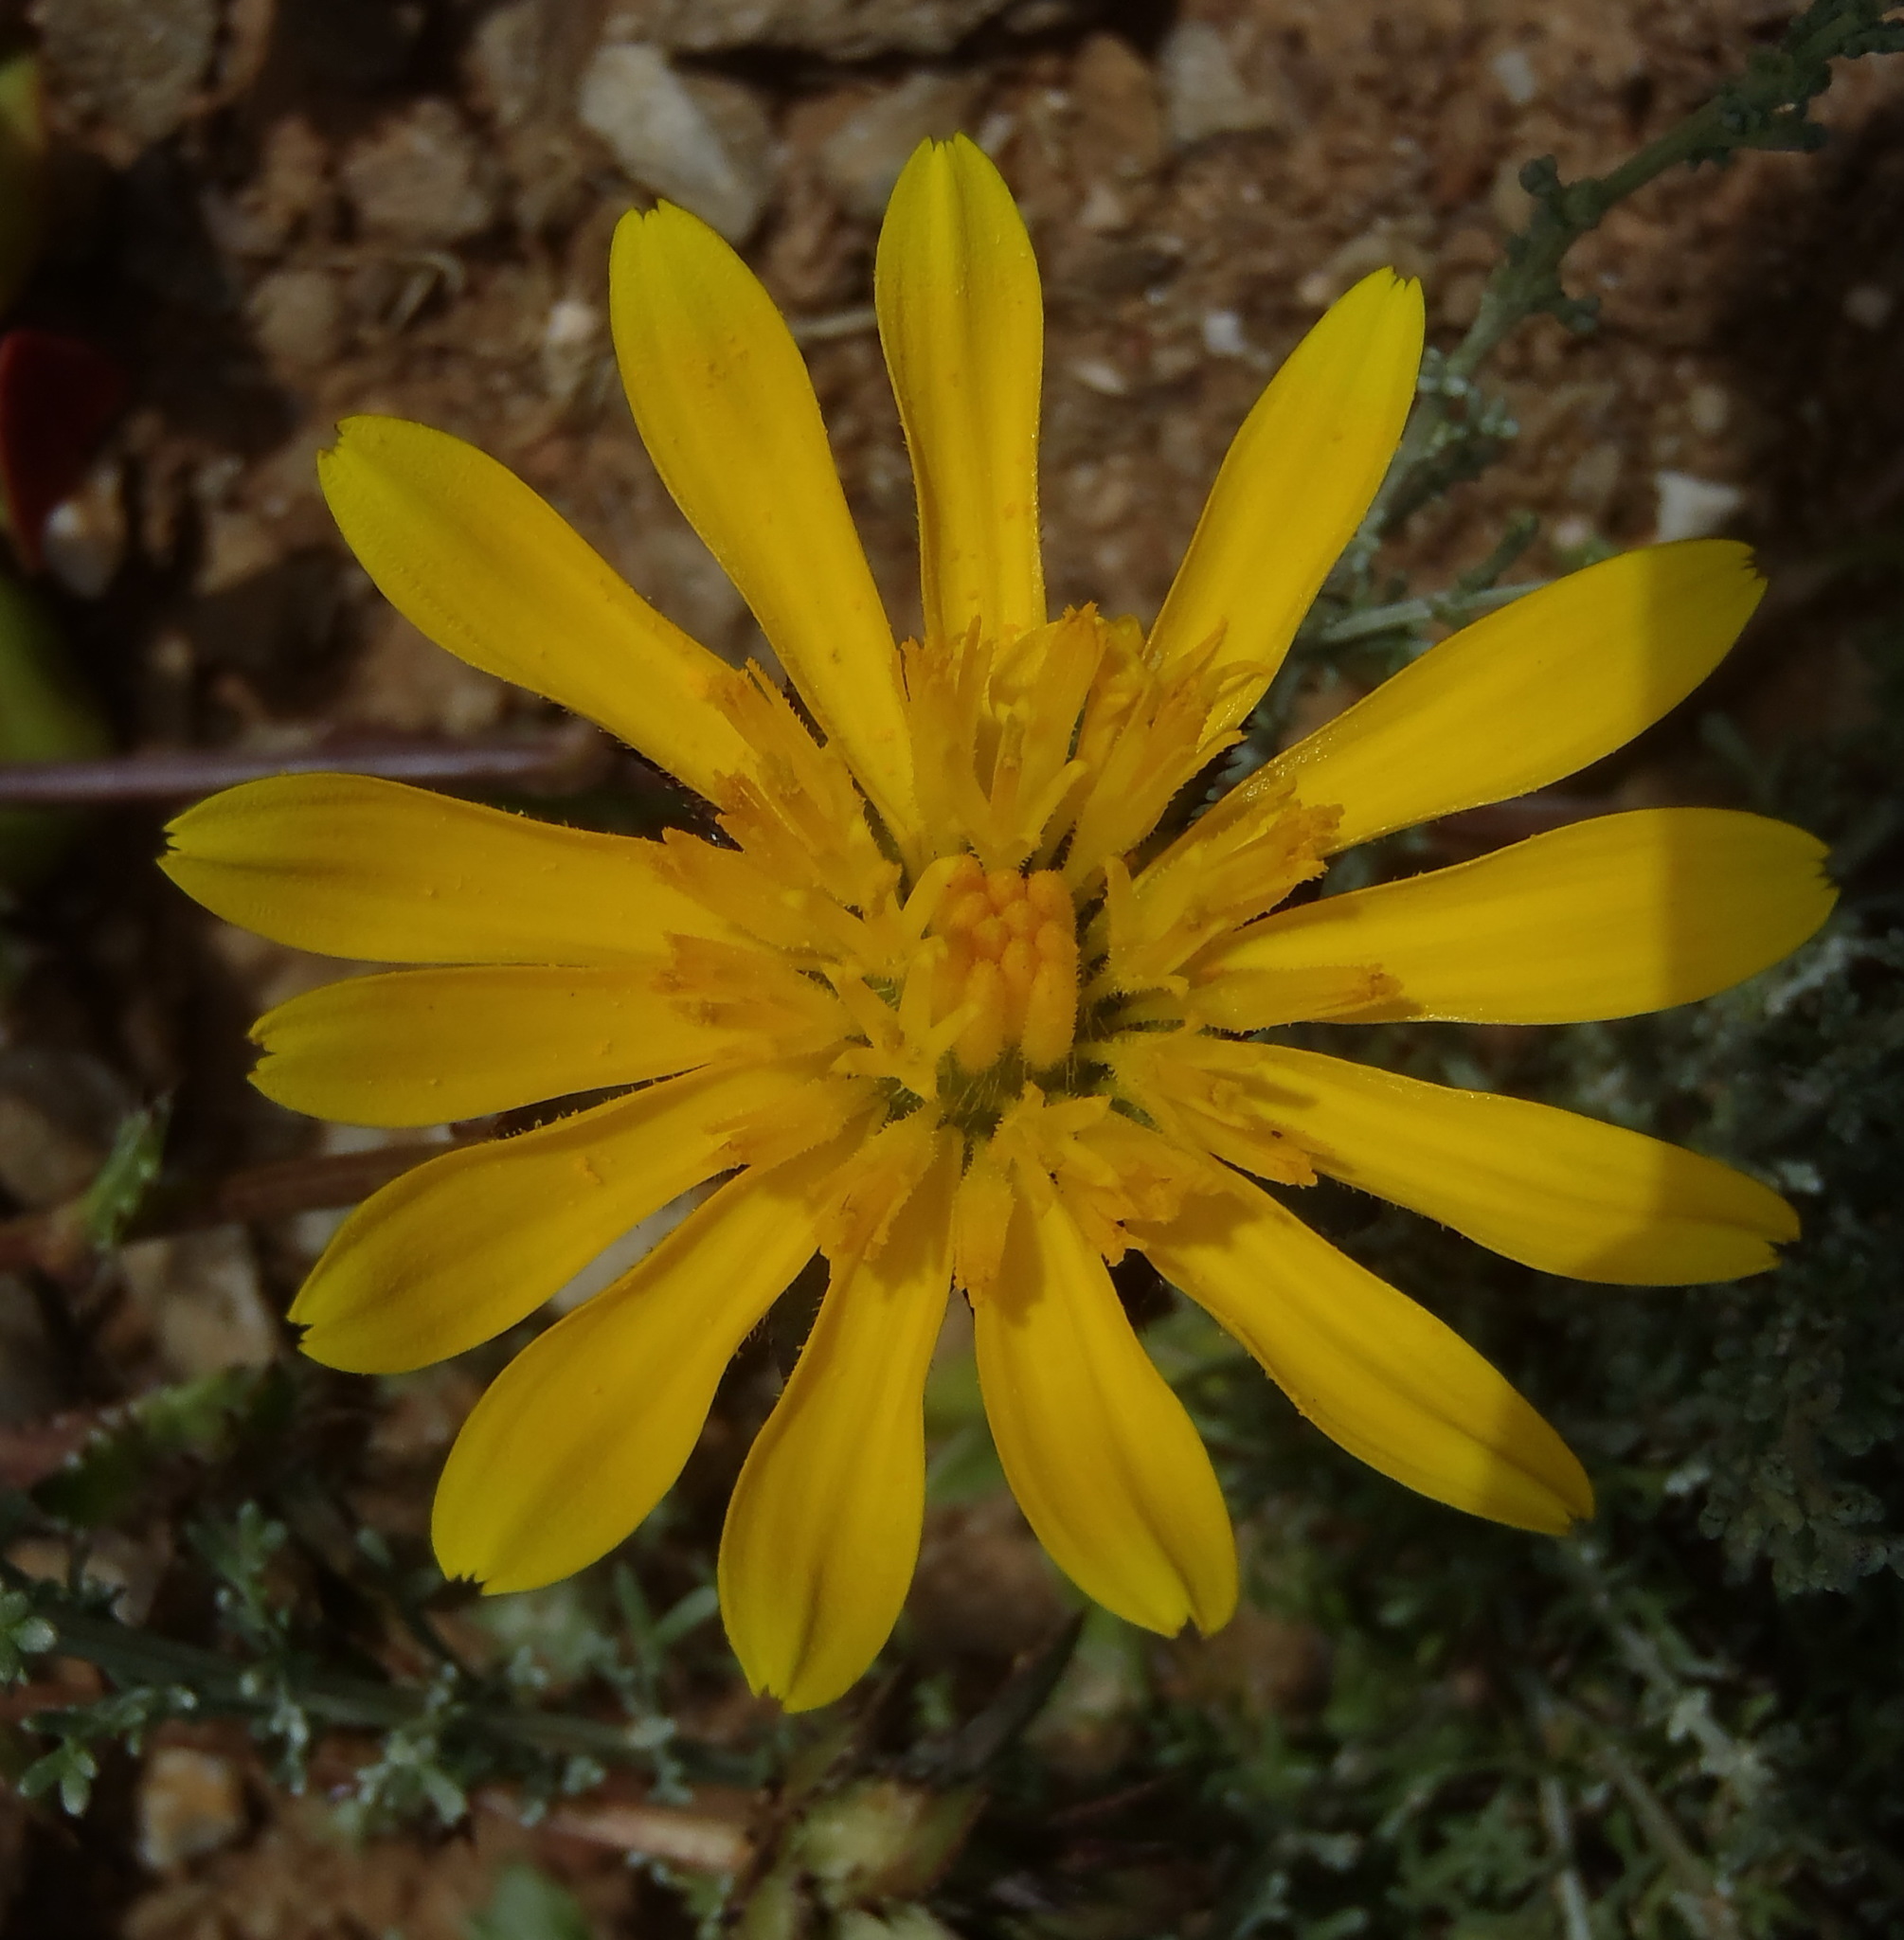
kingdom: Plantae
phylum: Tracheophyta
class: Magnoliopsida
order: Asterales
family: Asteraceae
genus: Cuspidia
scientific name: Cuspidia cernua
